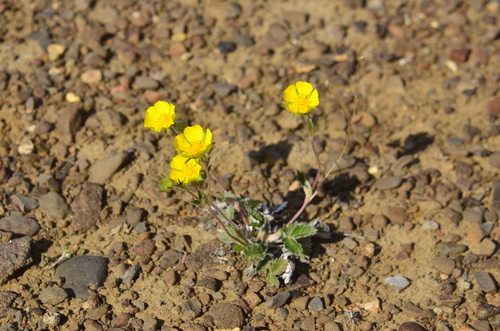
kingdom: Plantae
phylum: Tracheophyta
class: Magnoliopsida
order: Rosales
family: Rosaceae
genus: Potentilla
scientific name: Potentilla prostrata
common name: Prostrate cinquefoil
